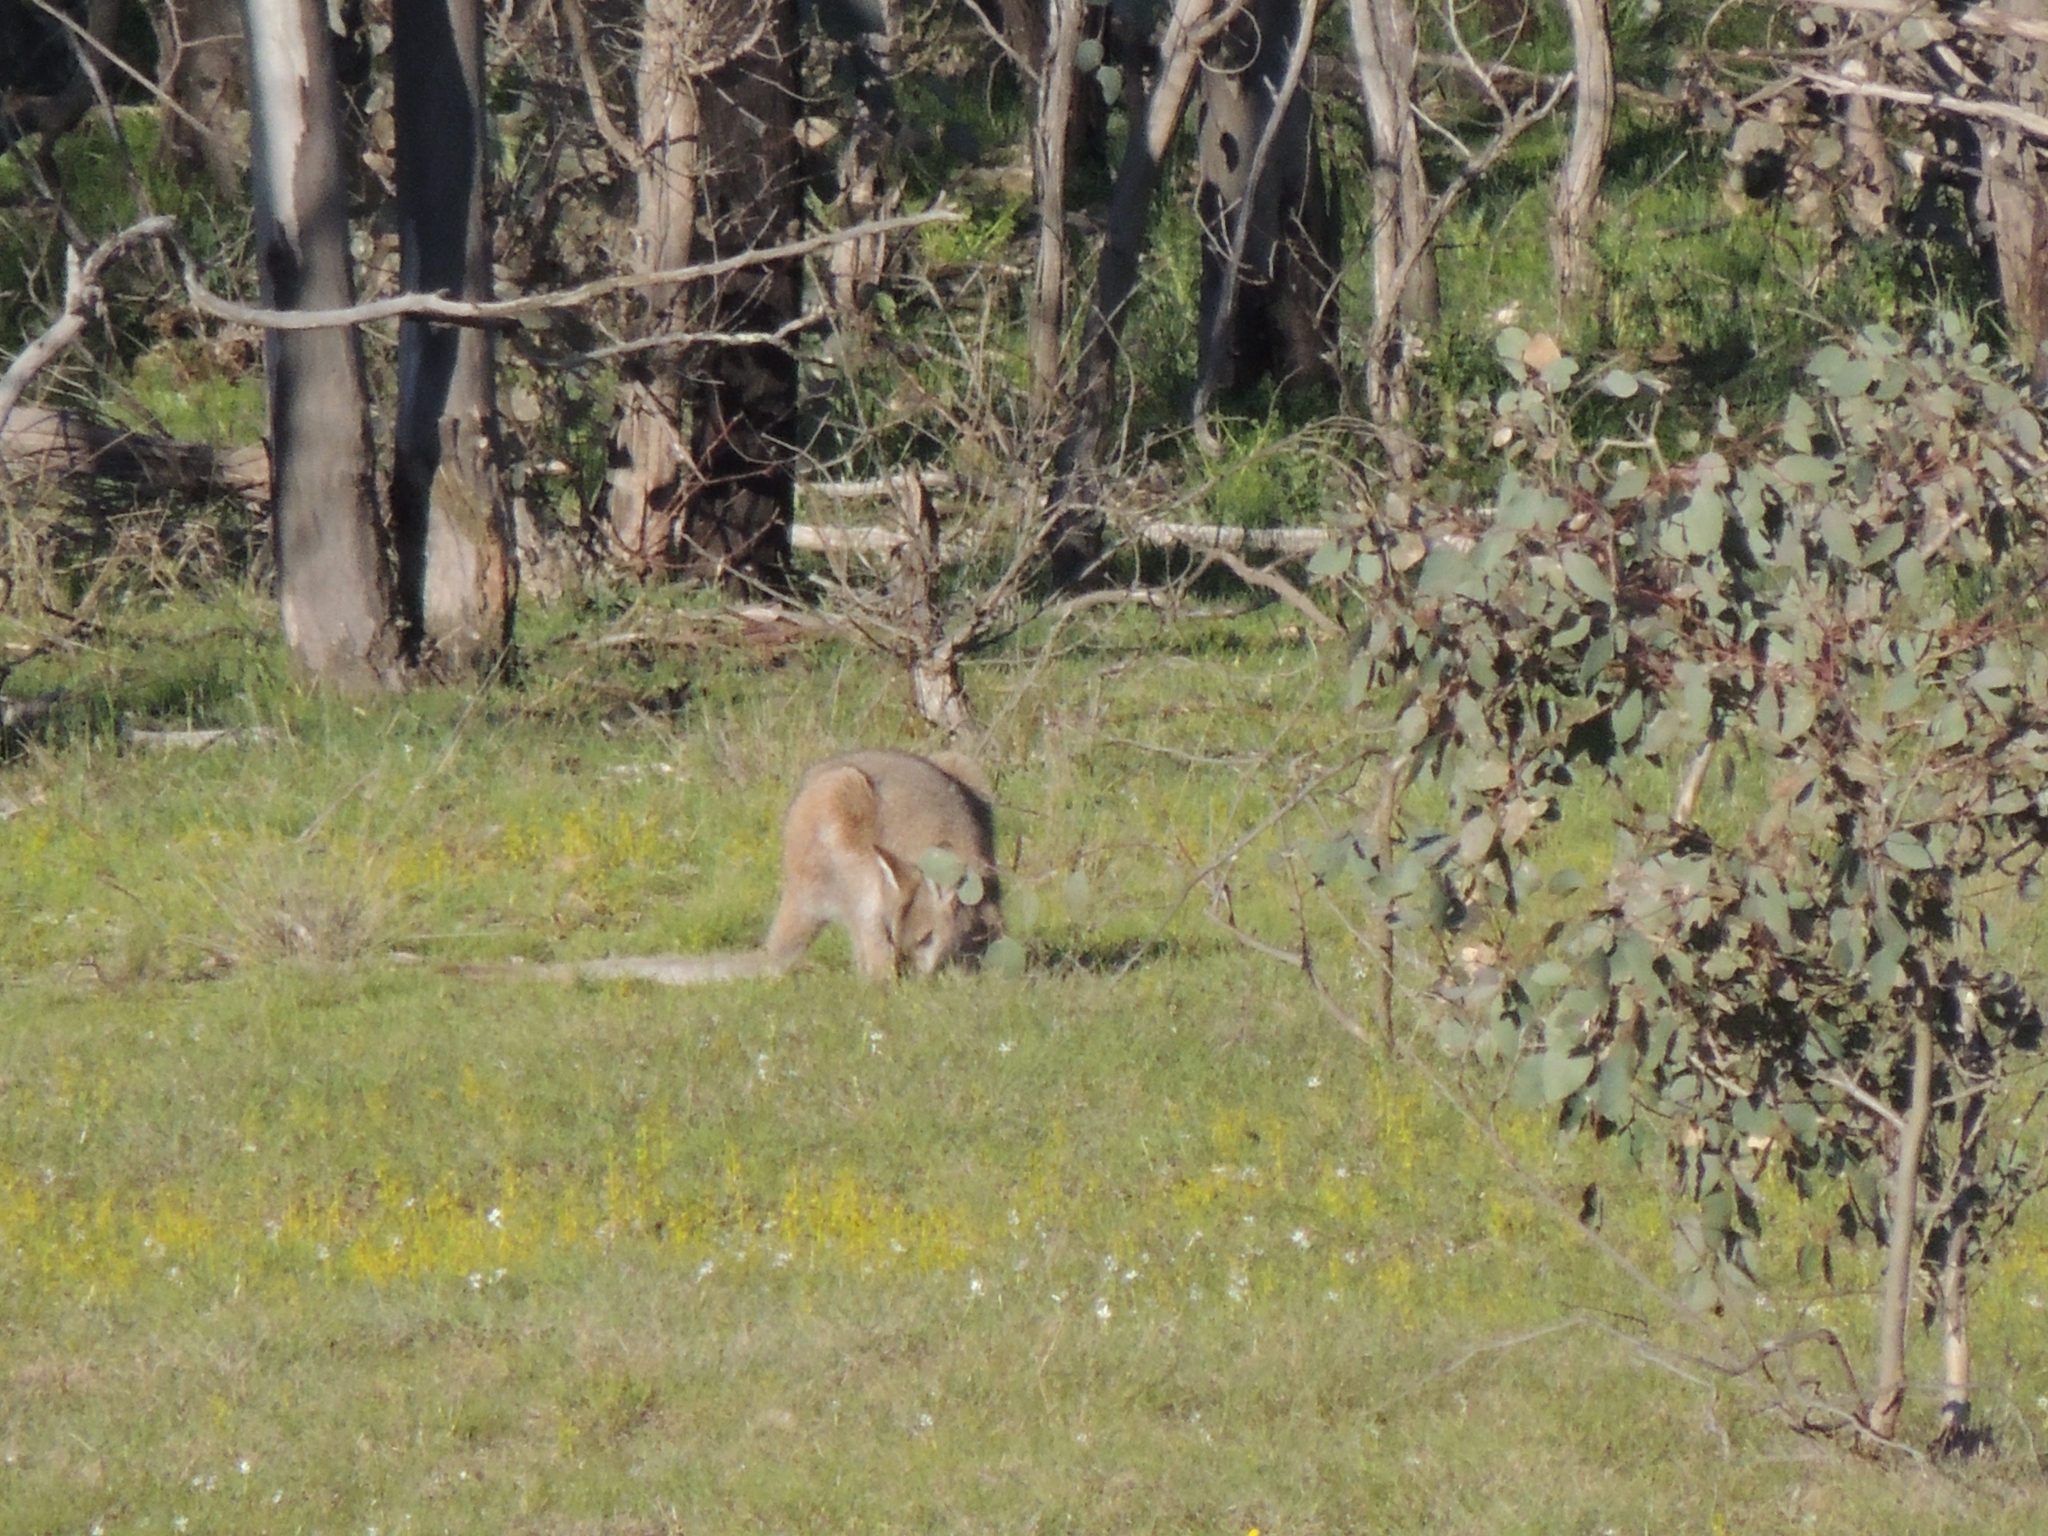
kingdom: Animalia
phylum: Chordata
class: Mammalia
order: Diprotodontia
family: Macropodidae
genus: Notamacropus
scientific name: Notamacropus rufogriseus
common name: Red-necked wallaby
